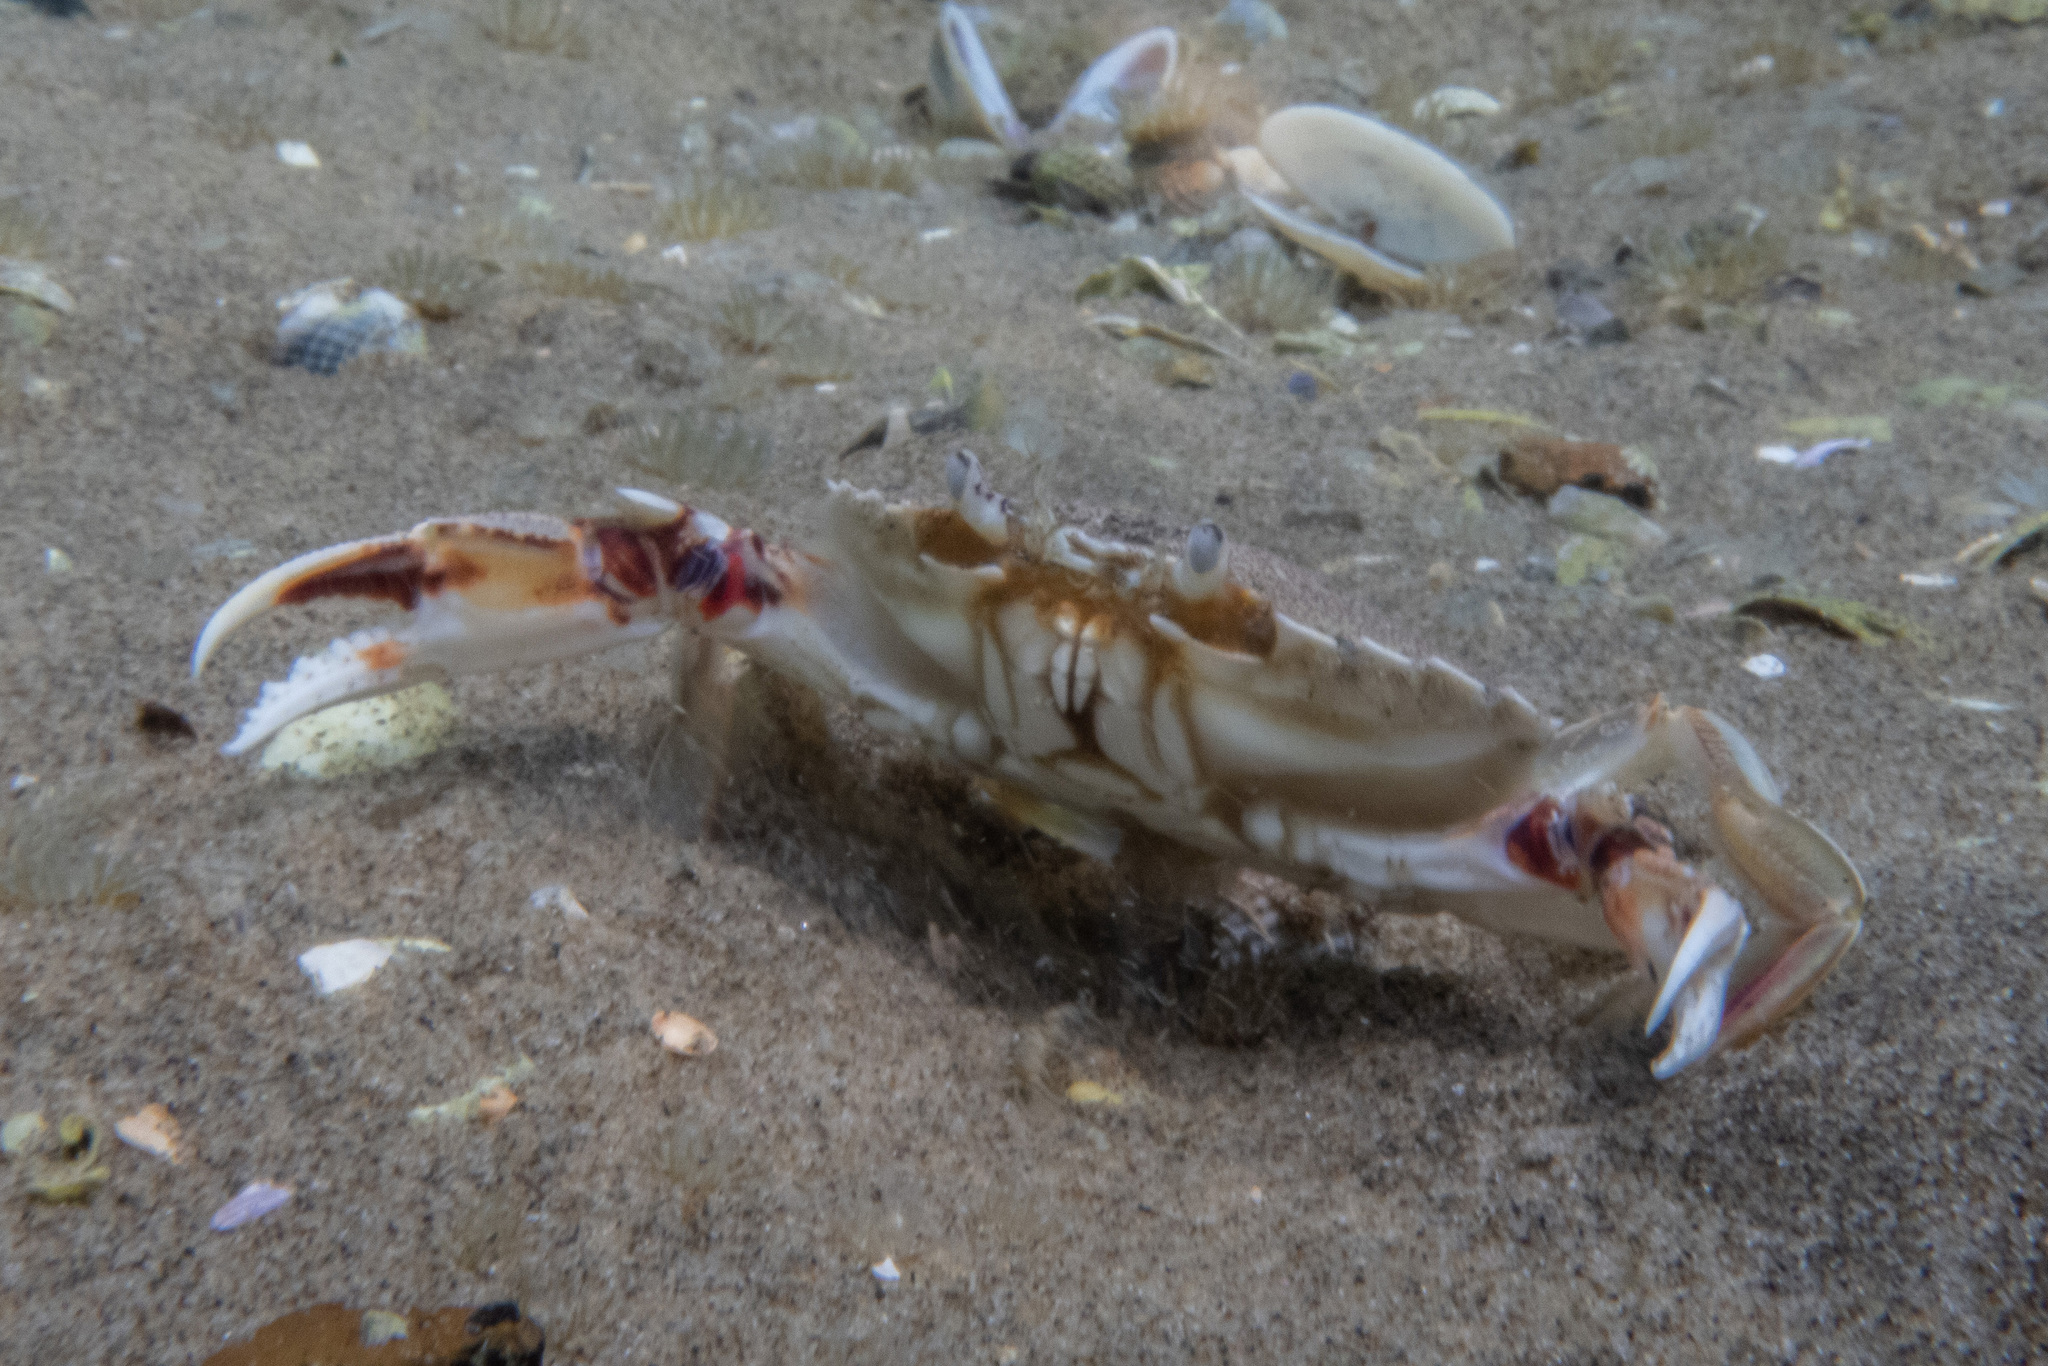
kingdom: Animalia
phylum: Arthropoda
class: Malacostraca
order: Decapoda
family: Ovalipidae
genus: Ovalipes
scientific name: Ovalipes catharus
